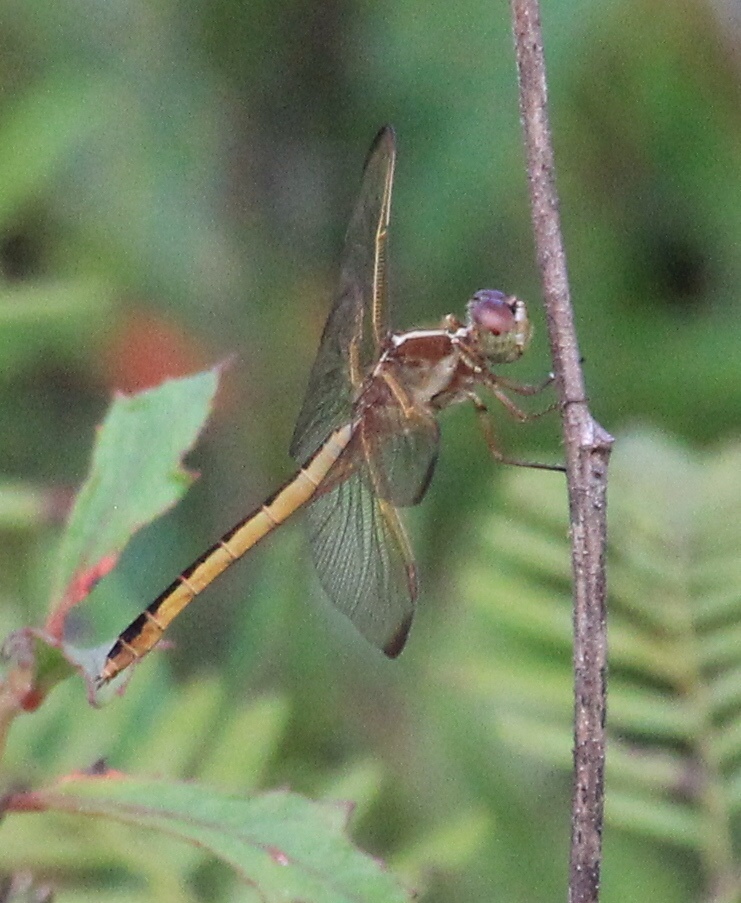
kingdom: Animalia
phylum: Arthropoda
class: Insecta
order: Odonata
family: Libellulidae
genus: Libellula
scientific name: Libellula needhami
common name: Needham's skimmer
